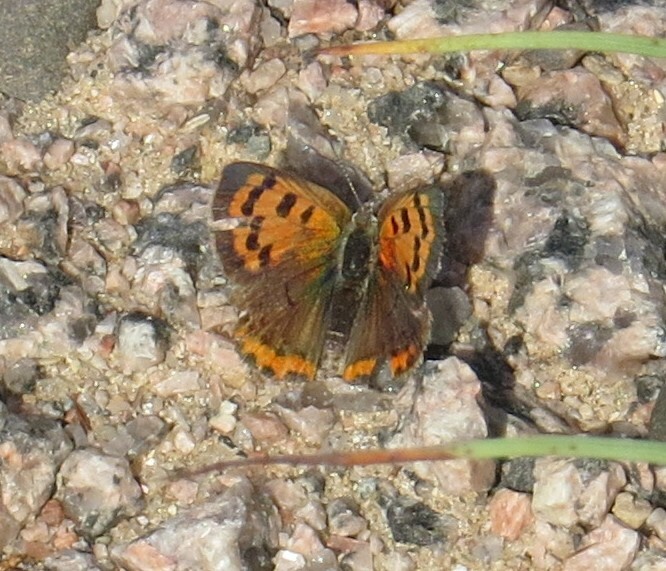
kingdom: Animalia
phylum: Arthropoda
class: Insecta
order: Lepidoptera
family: Lycaenidae
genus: Lycaena
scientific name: Lycaena hypophlaeas
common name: American copper
